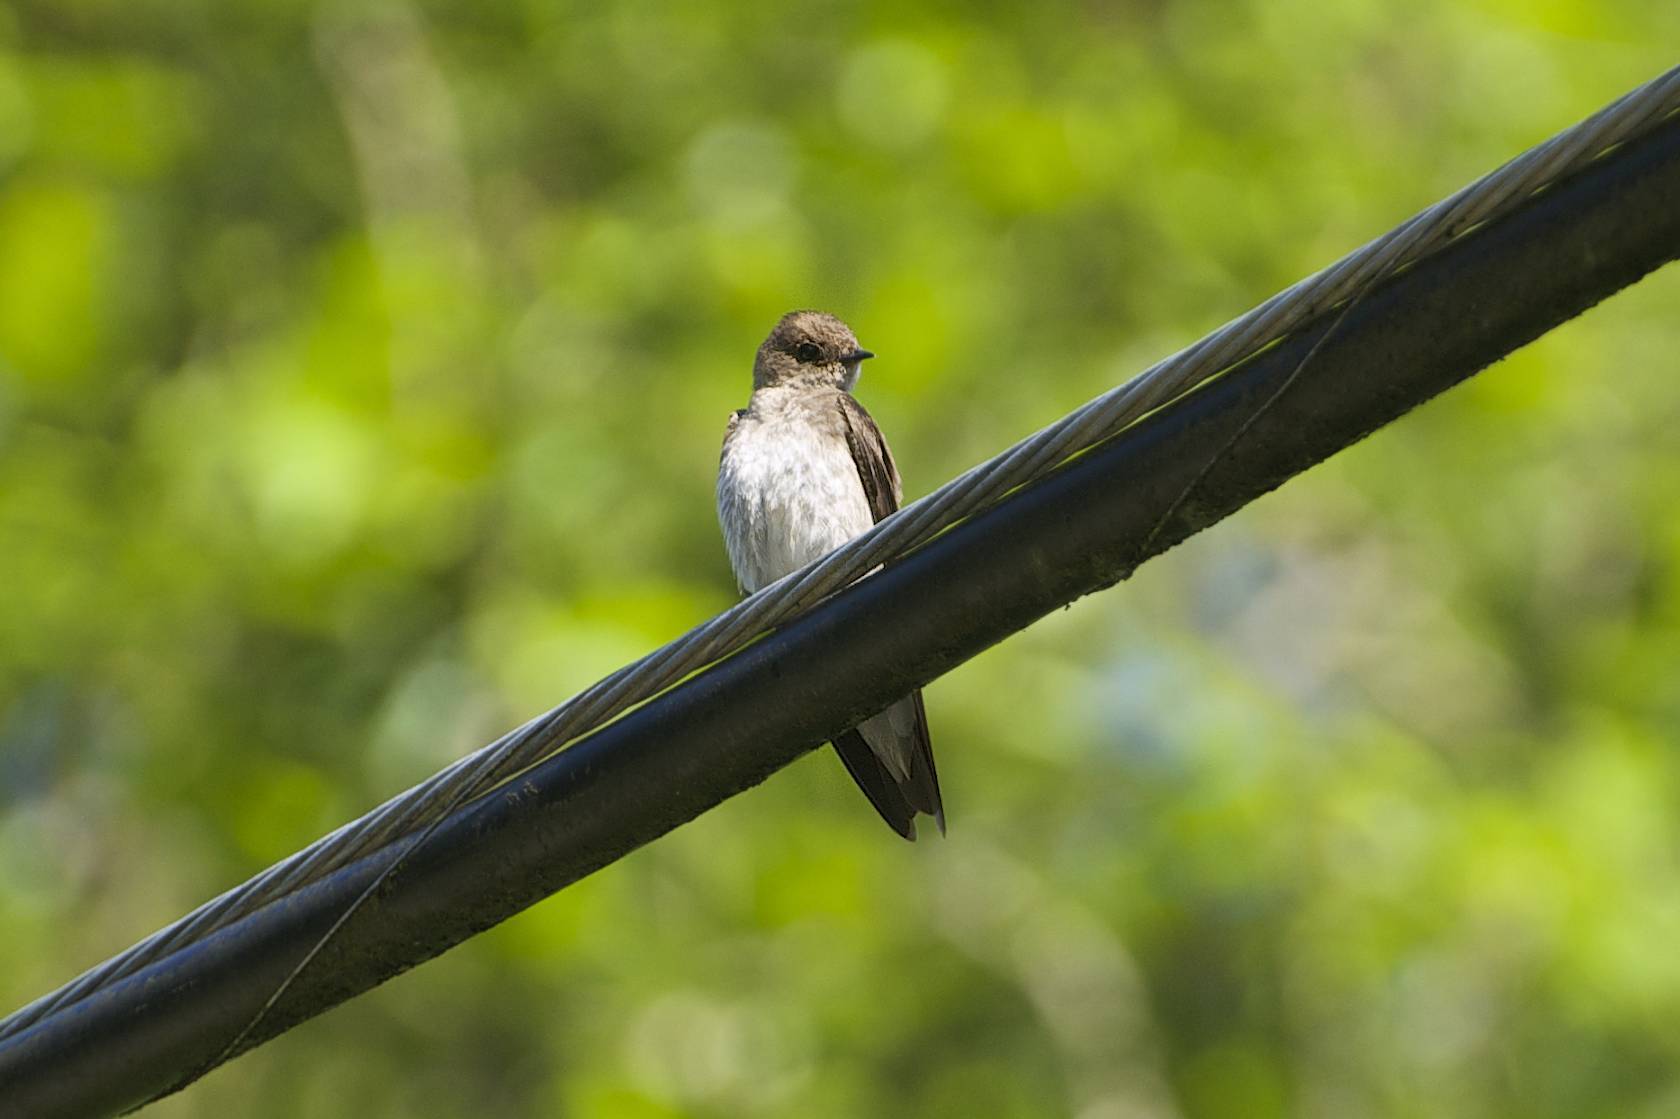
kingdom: Animalia
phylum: Chordata
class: Aves
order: Passeriformes
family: Hirundinidae
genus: Stelgidopteryx
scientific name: Stelgidopteryx serripennis
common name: Northern rough-winged swallow
